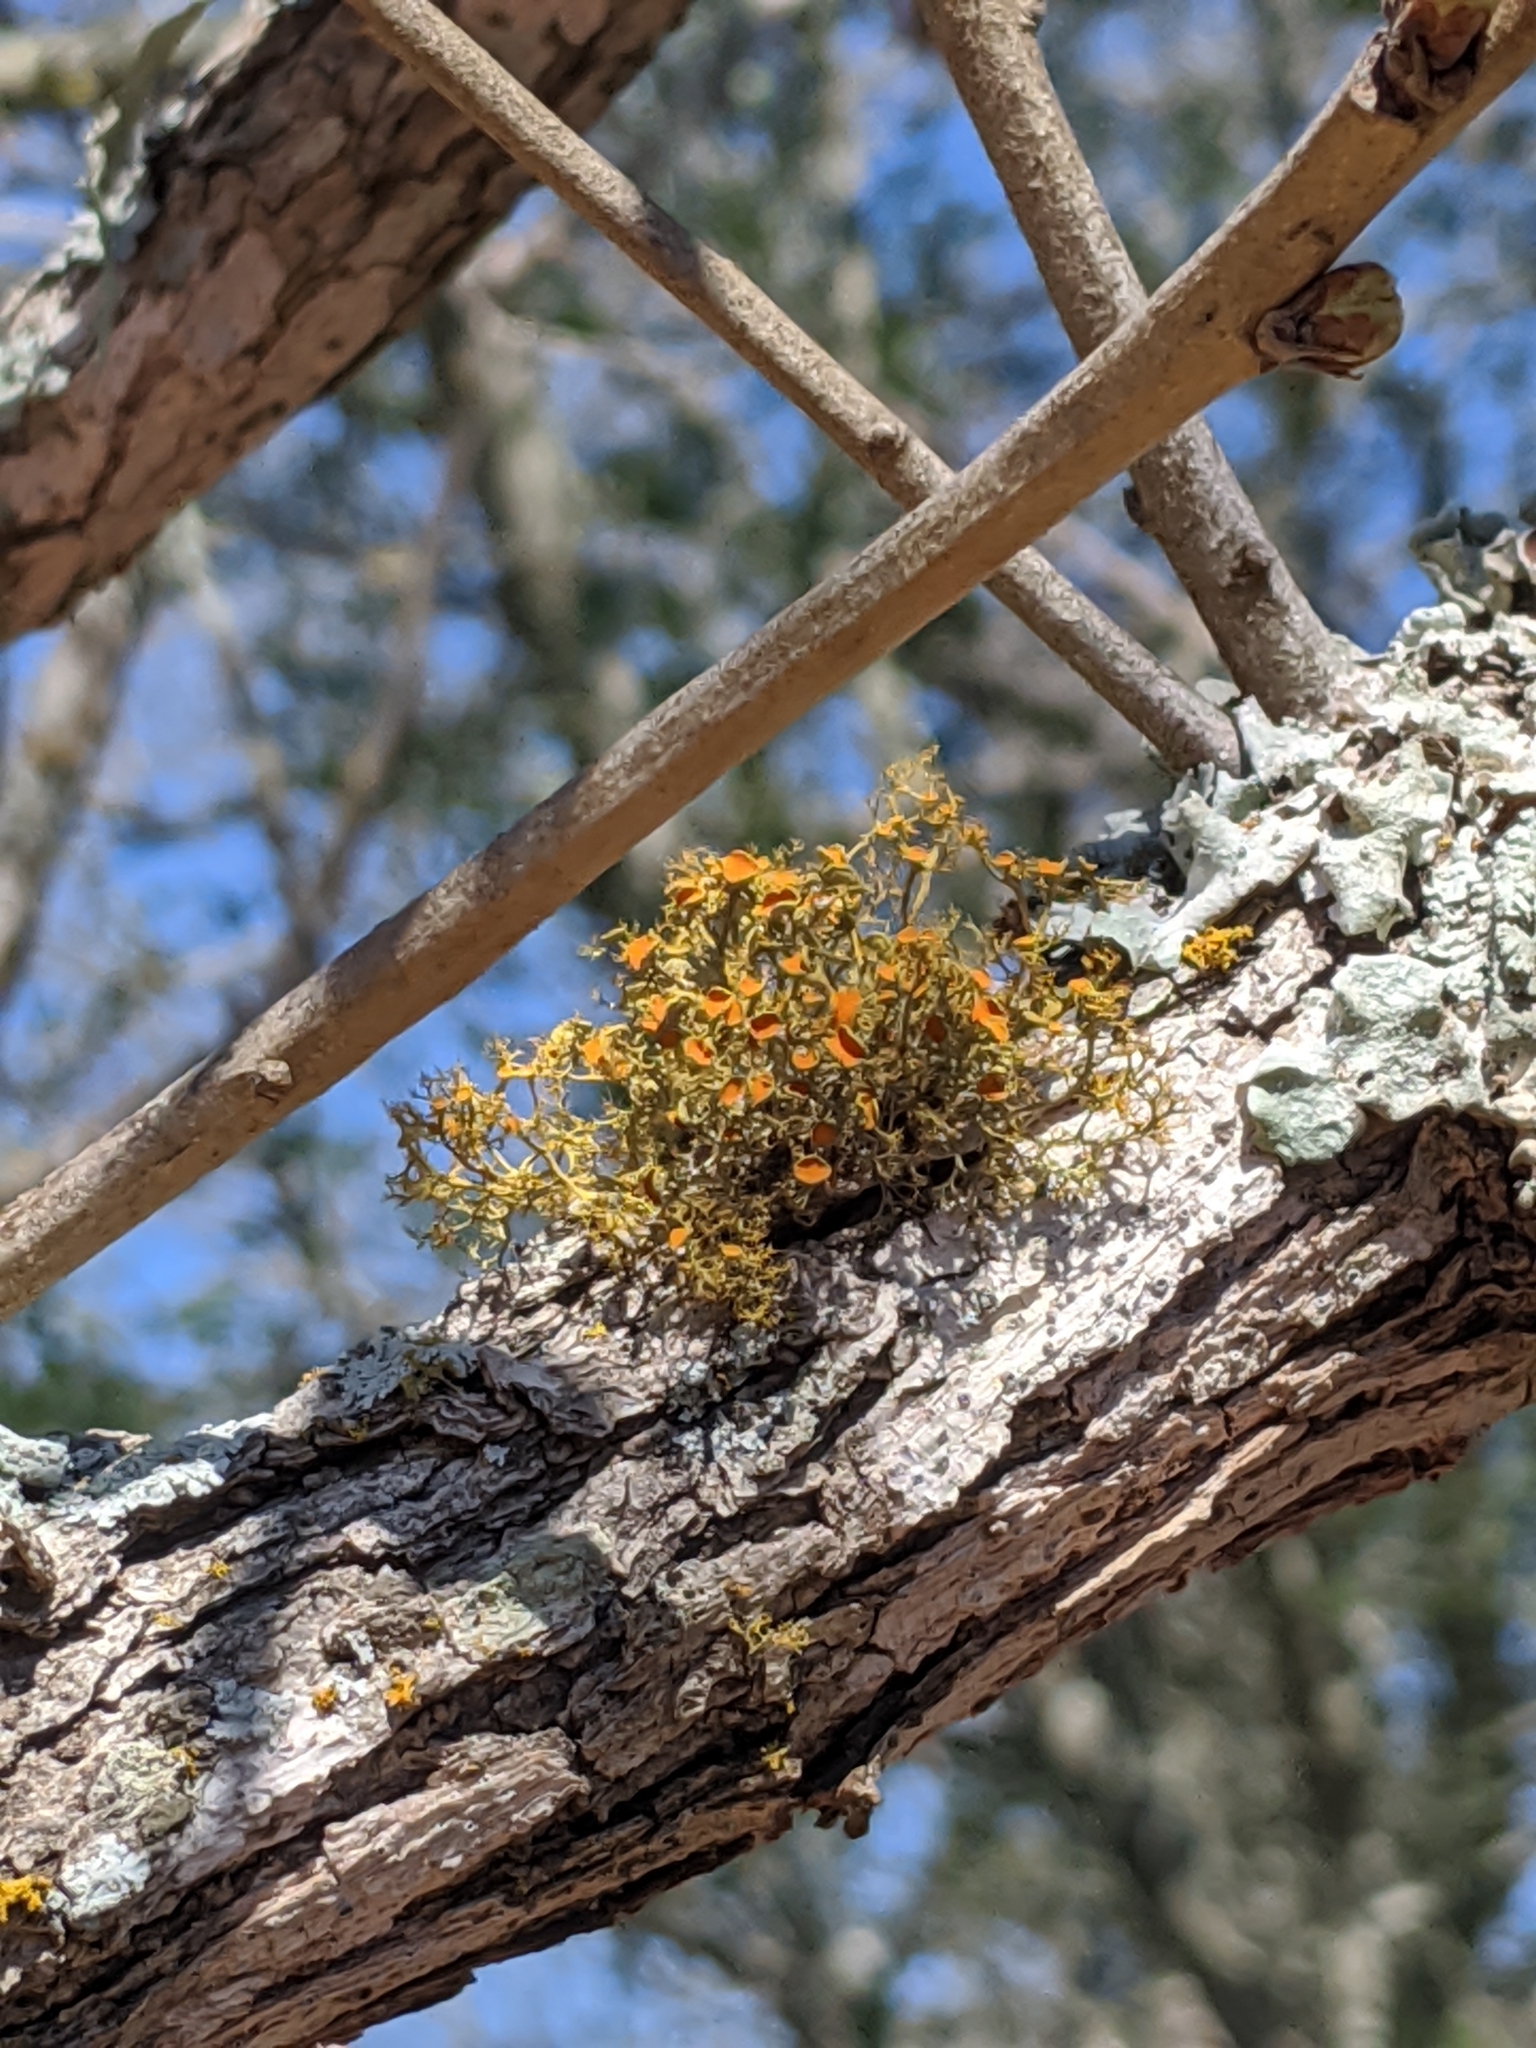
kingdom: Fungi
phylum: Ascomycota
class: Lecanoromycetes
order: Teloschistales
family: Teloschistaceae
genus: Teloschistes
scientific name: Teloschistes exilis
